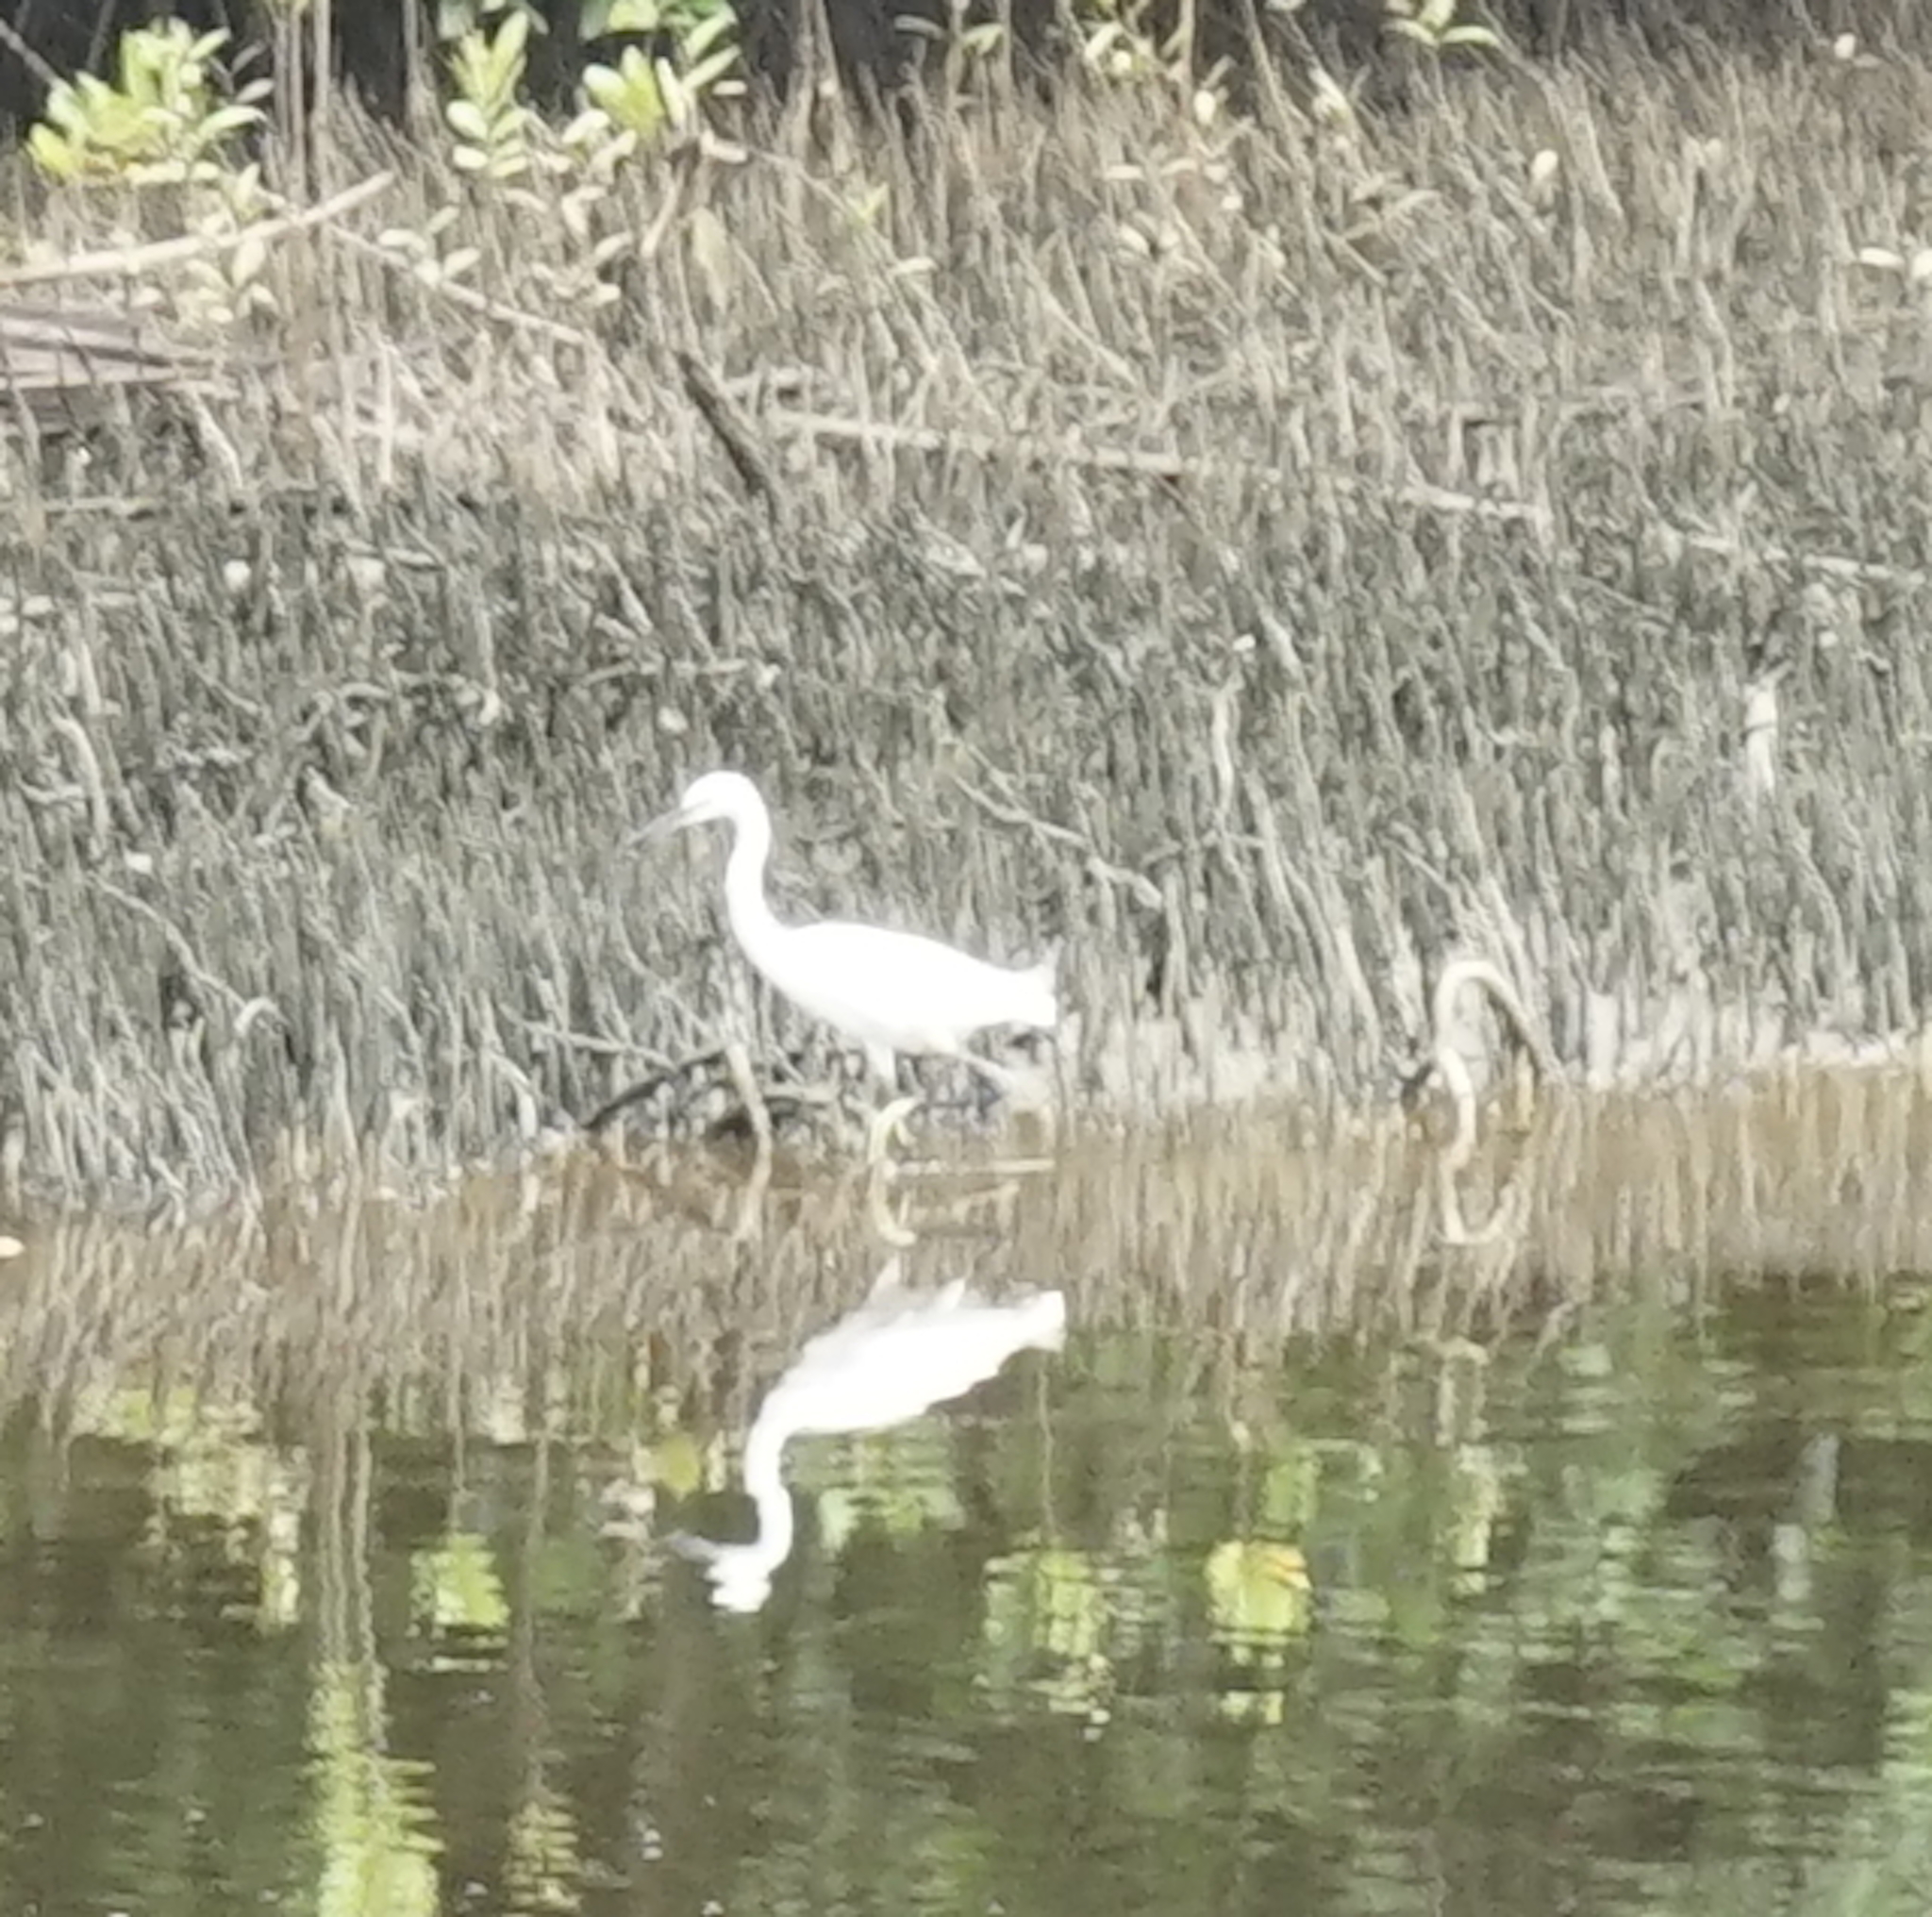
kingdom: Animalia
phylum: Chordata
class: Aves
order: Pelecaniformes
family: Ardeidae
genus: Egretta
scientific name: Egretta garzetta
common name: Little egret
